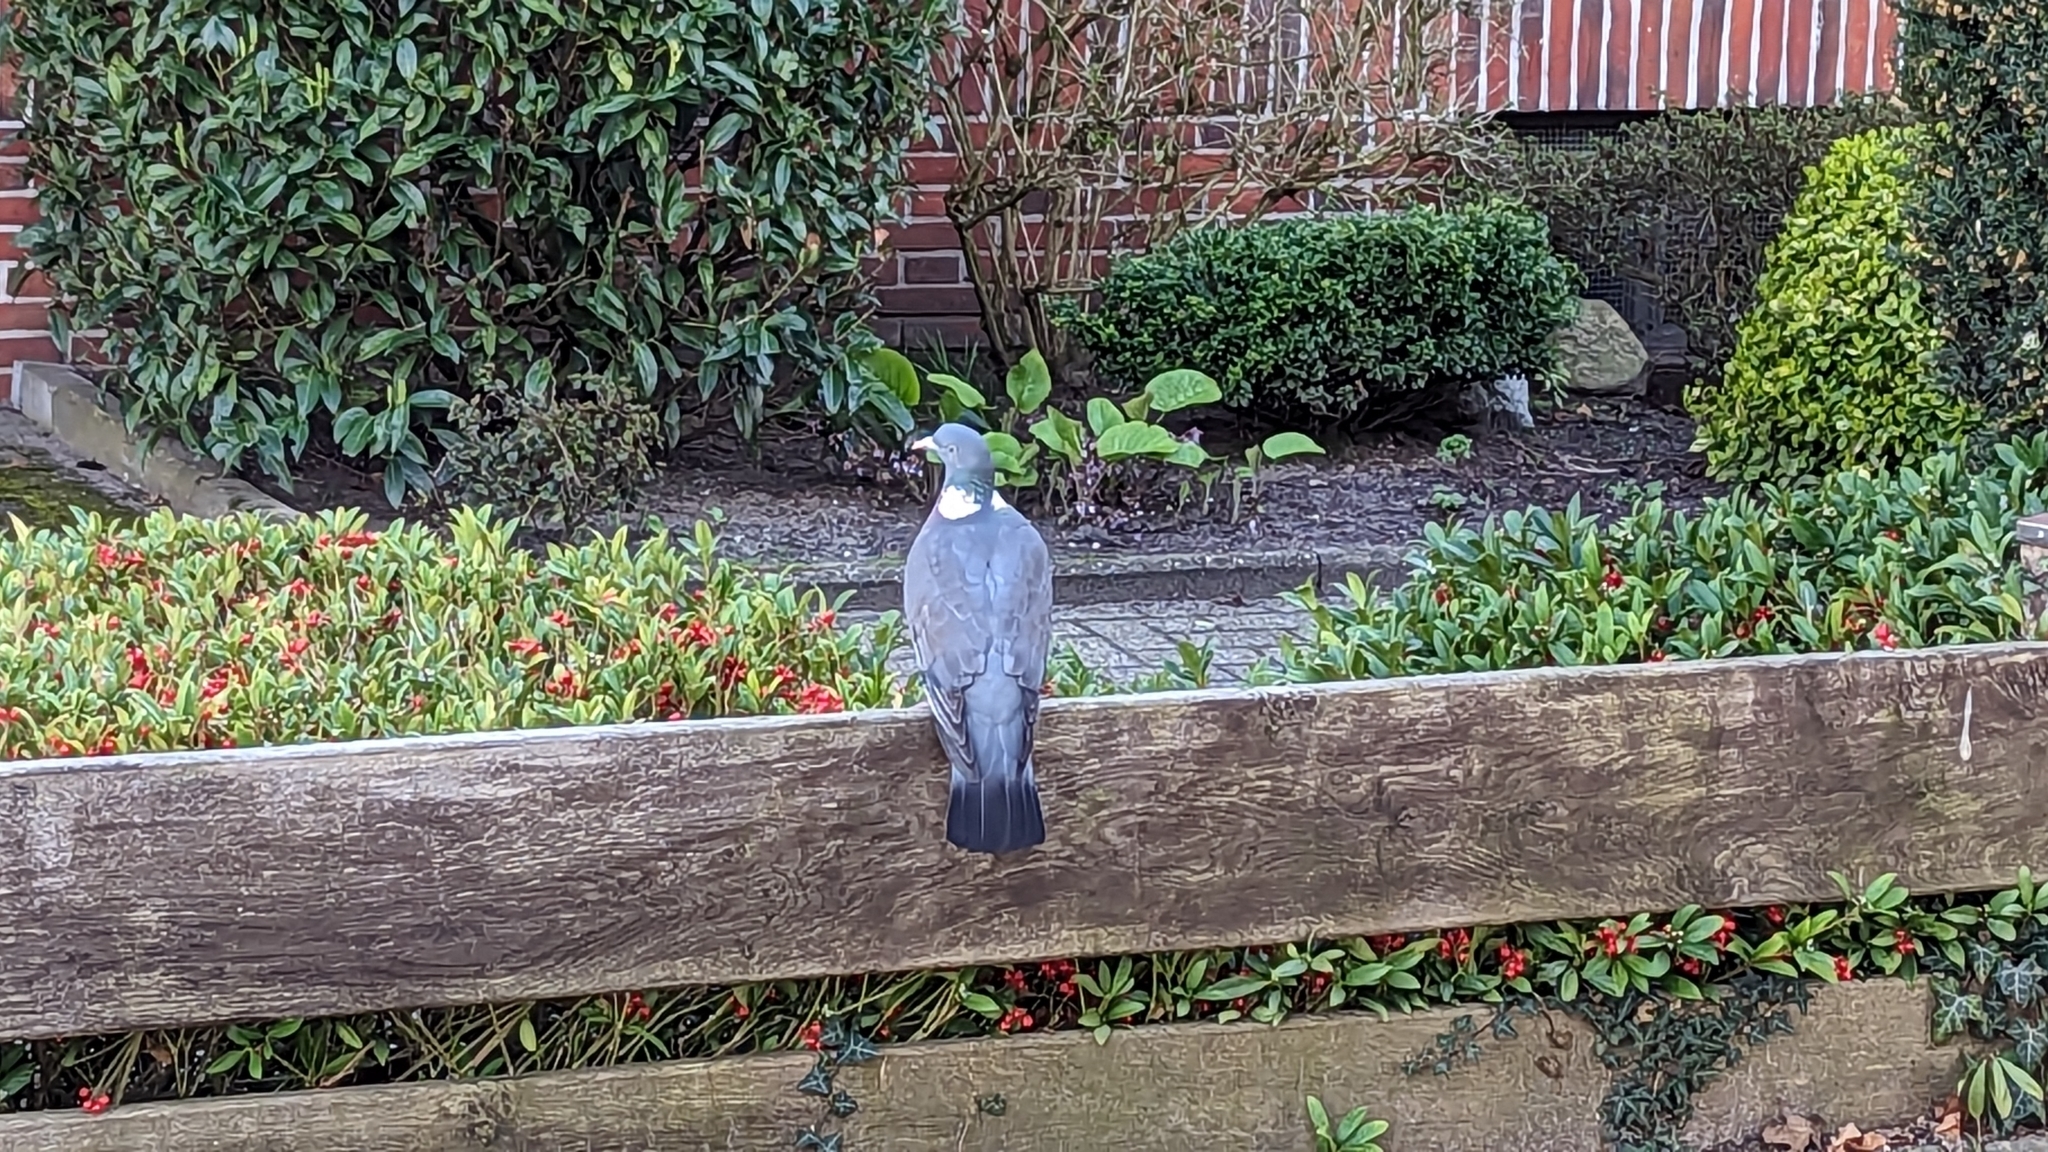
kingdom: Animalia
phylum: Chordata
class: Aves
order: Columbiformes
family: Columbidae
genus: Columba
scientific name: Columba palumbus
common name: Common wood pigeon
